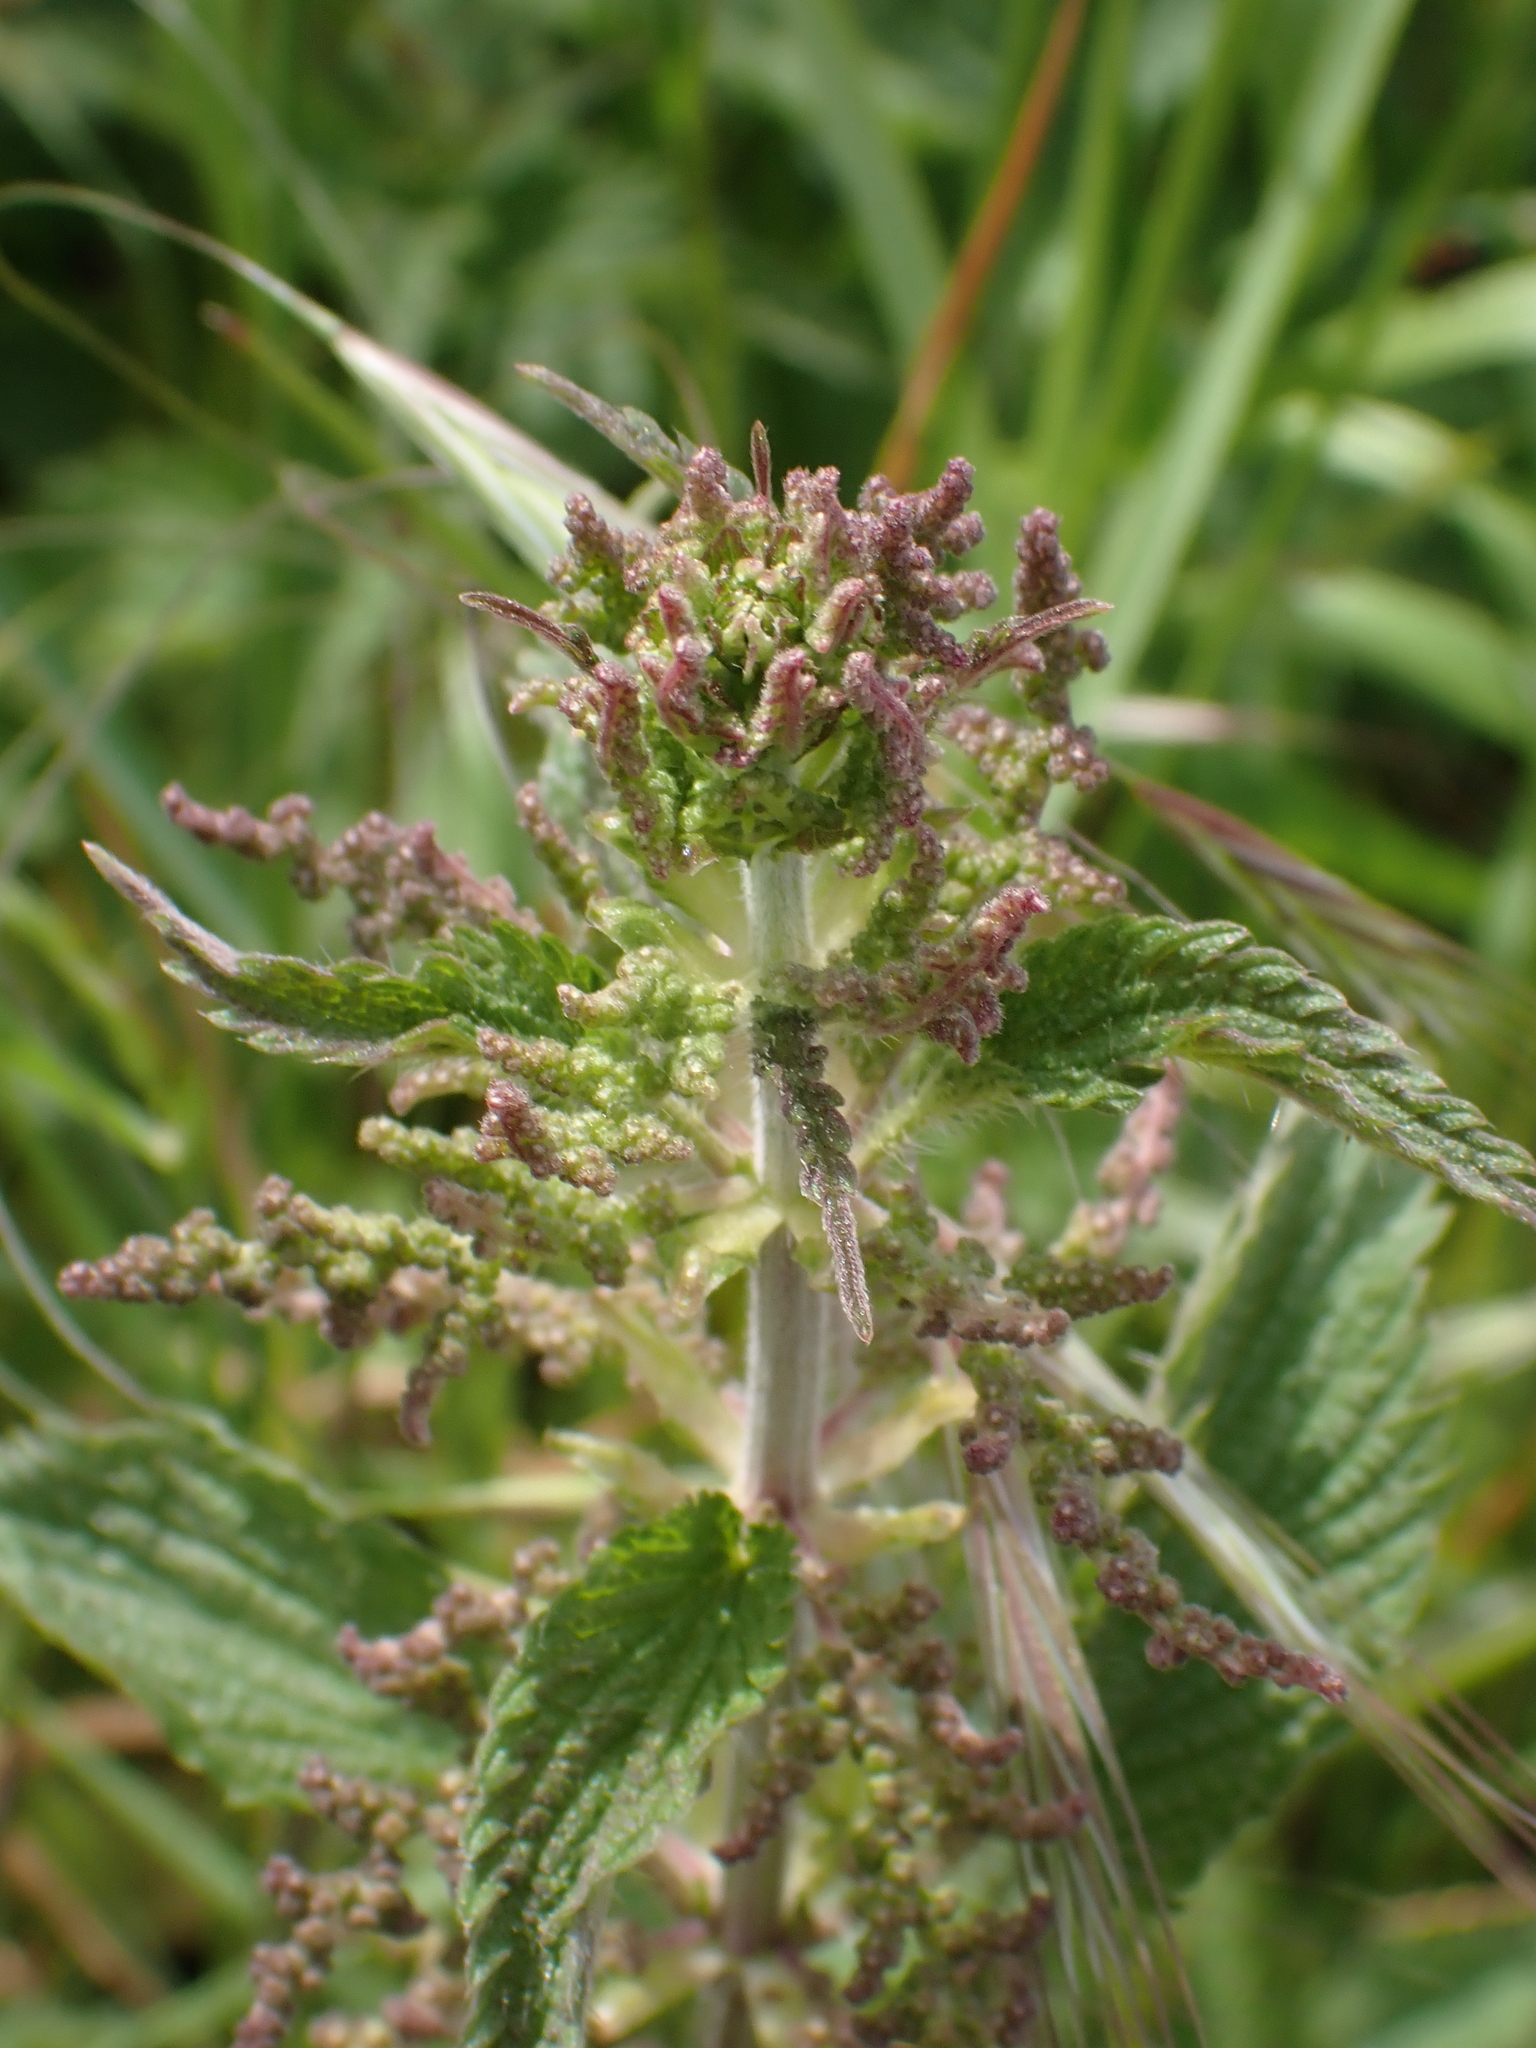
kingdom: Plantae
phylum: Tracheophyta
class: Magnoliopsida
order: Rosales
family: Urticaceae
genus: Urtica
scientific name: Urtica dioica
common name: Common nettle
